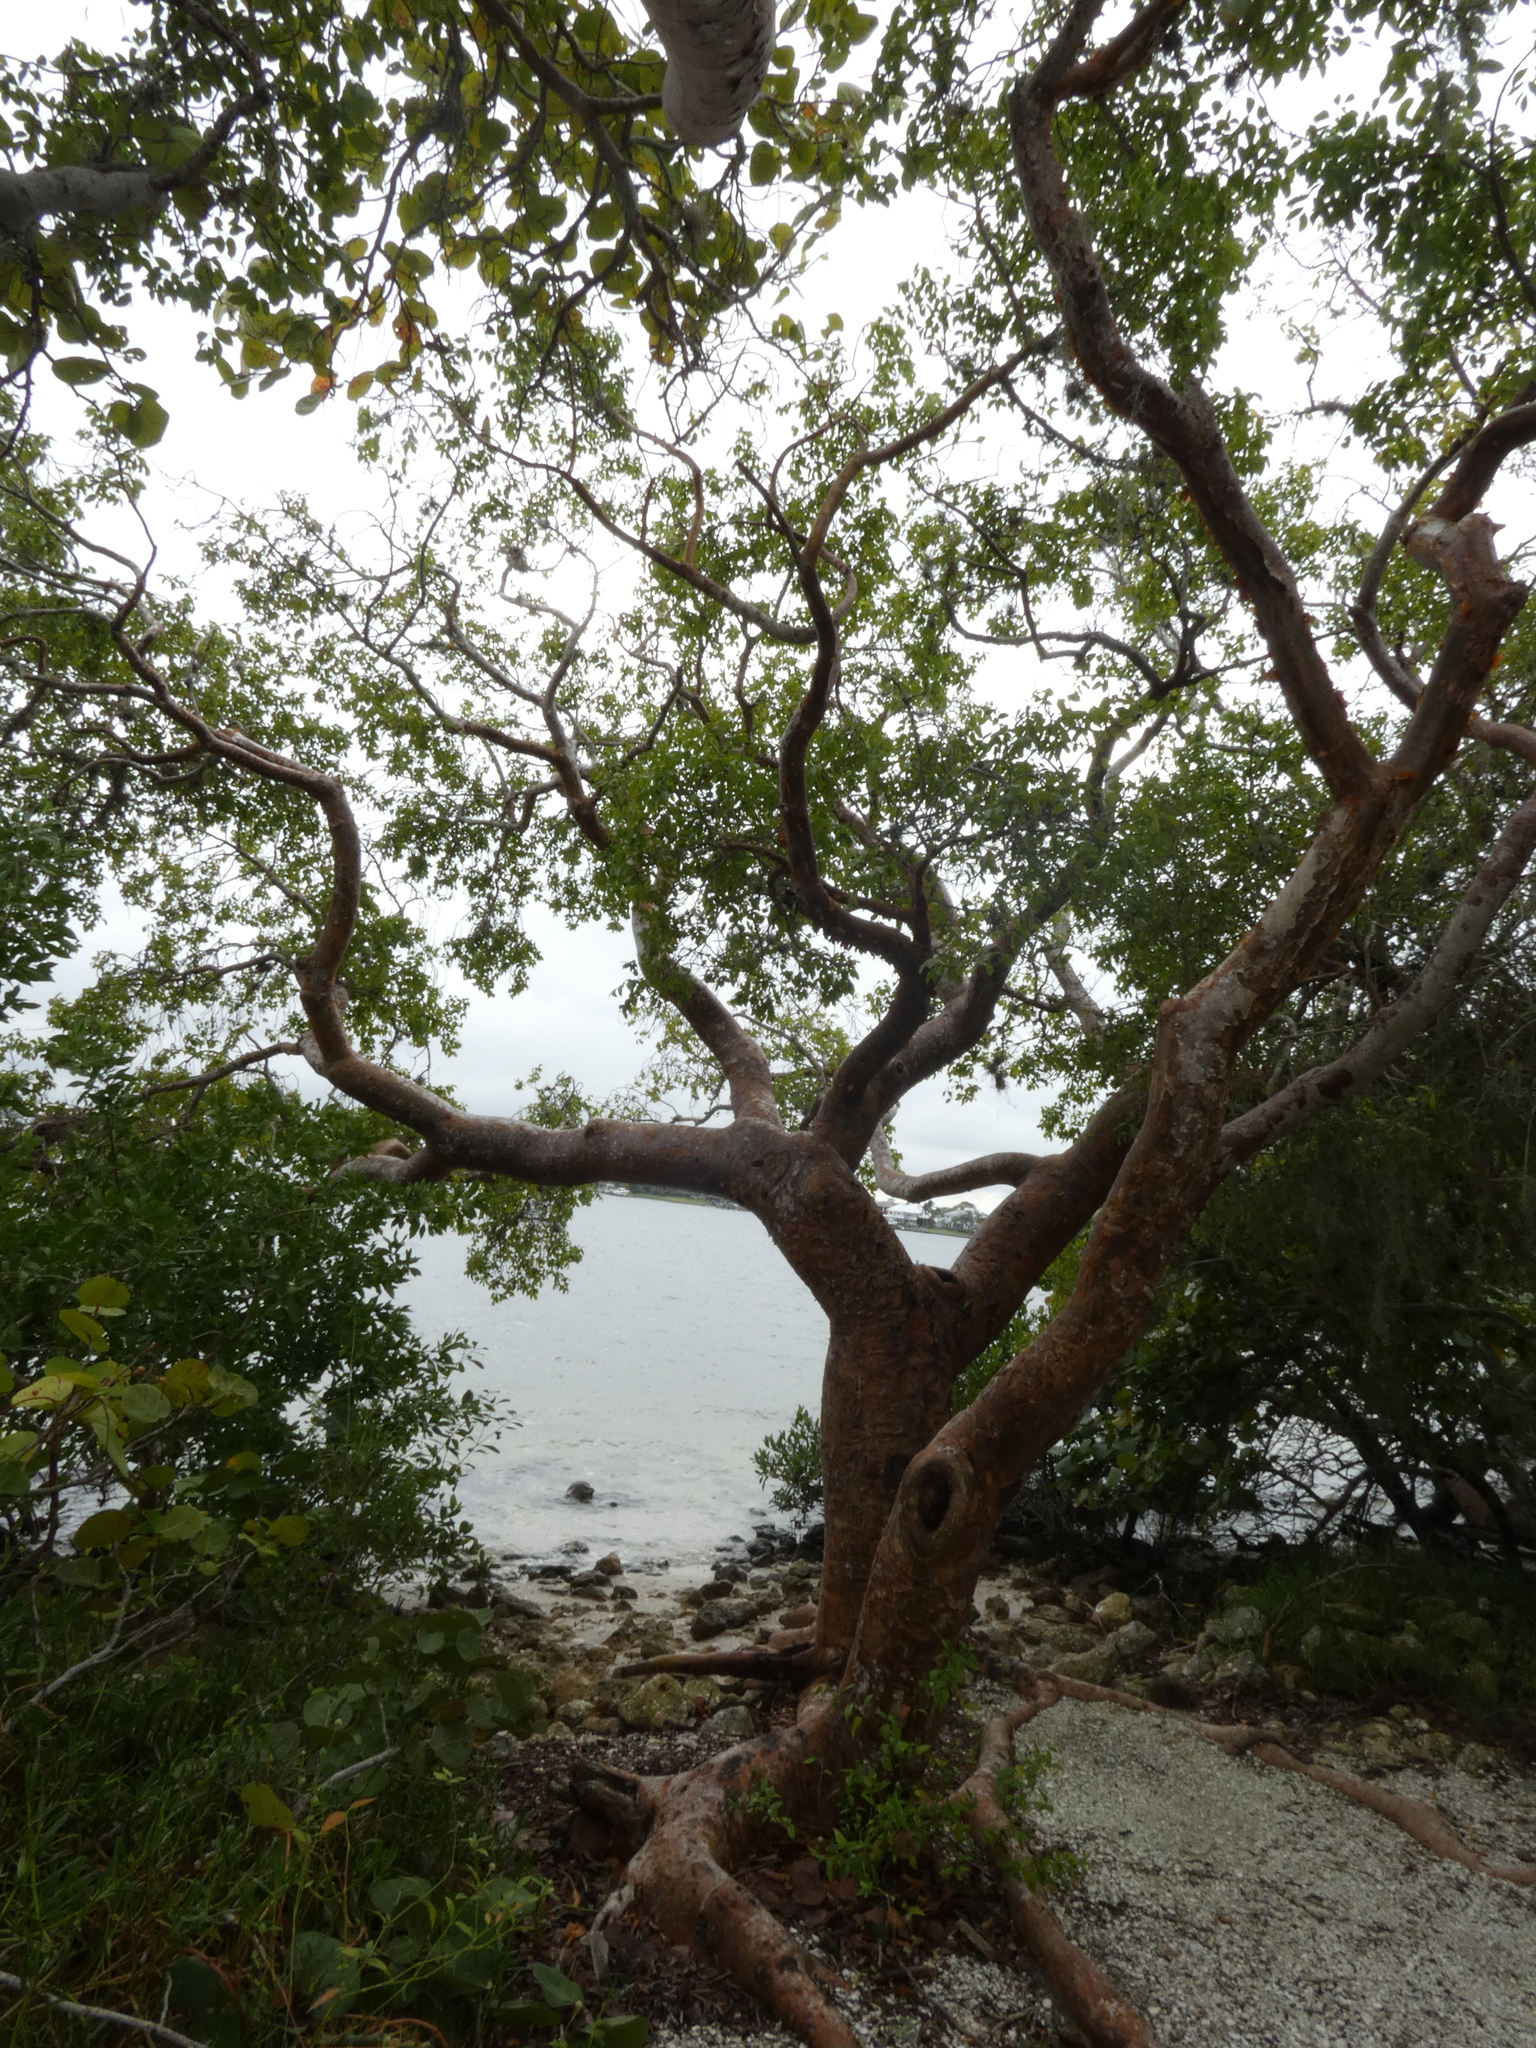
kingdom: Plantae
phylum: Tracheophyta
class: Magnoliopsida
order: Sapindales
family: Burseraceae
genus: Bursera
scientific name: Bursera simaruba
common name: Turpentine tree
